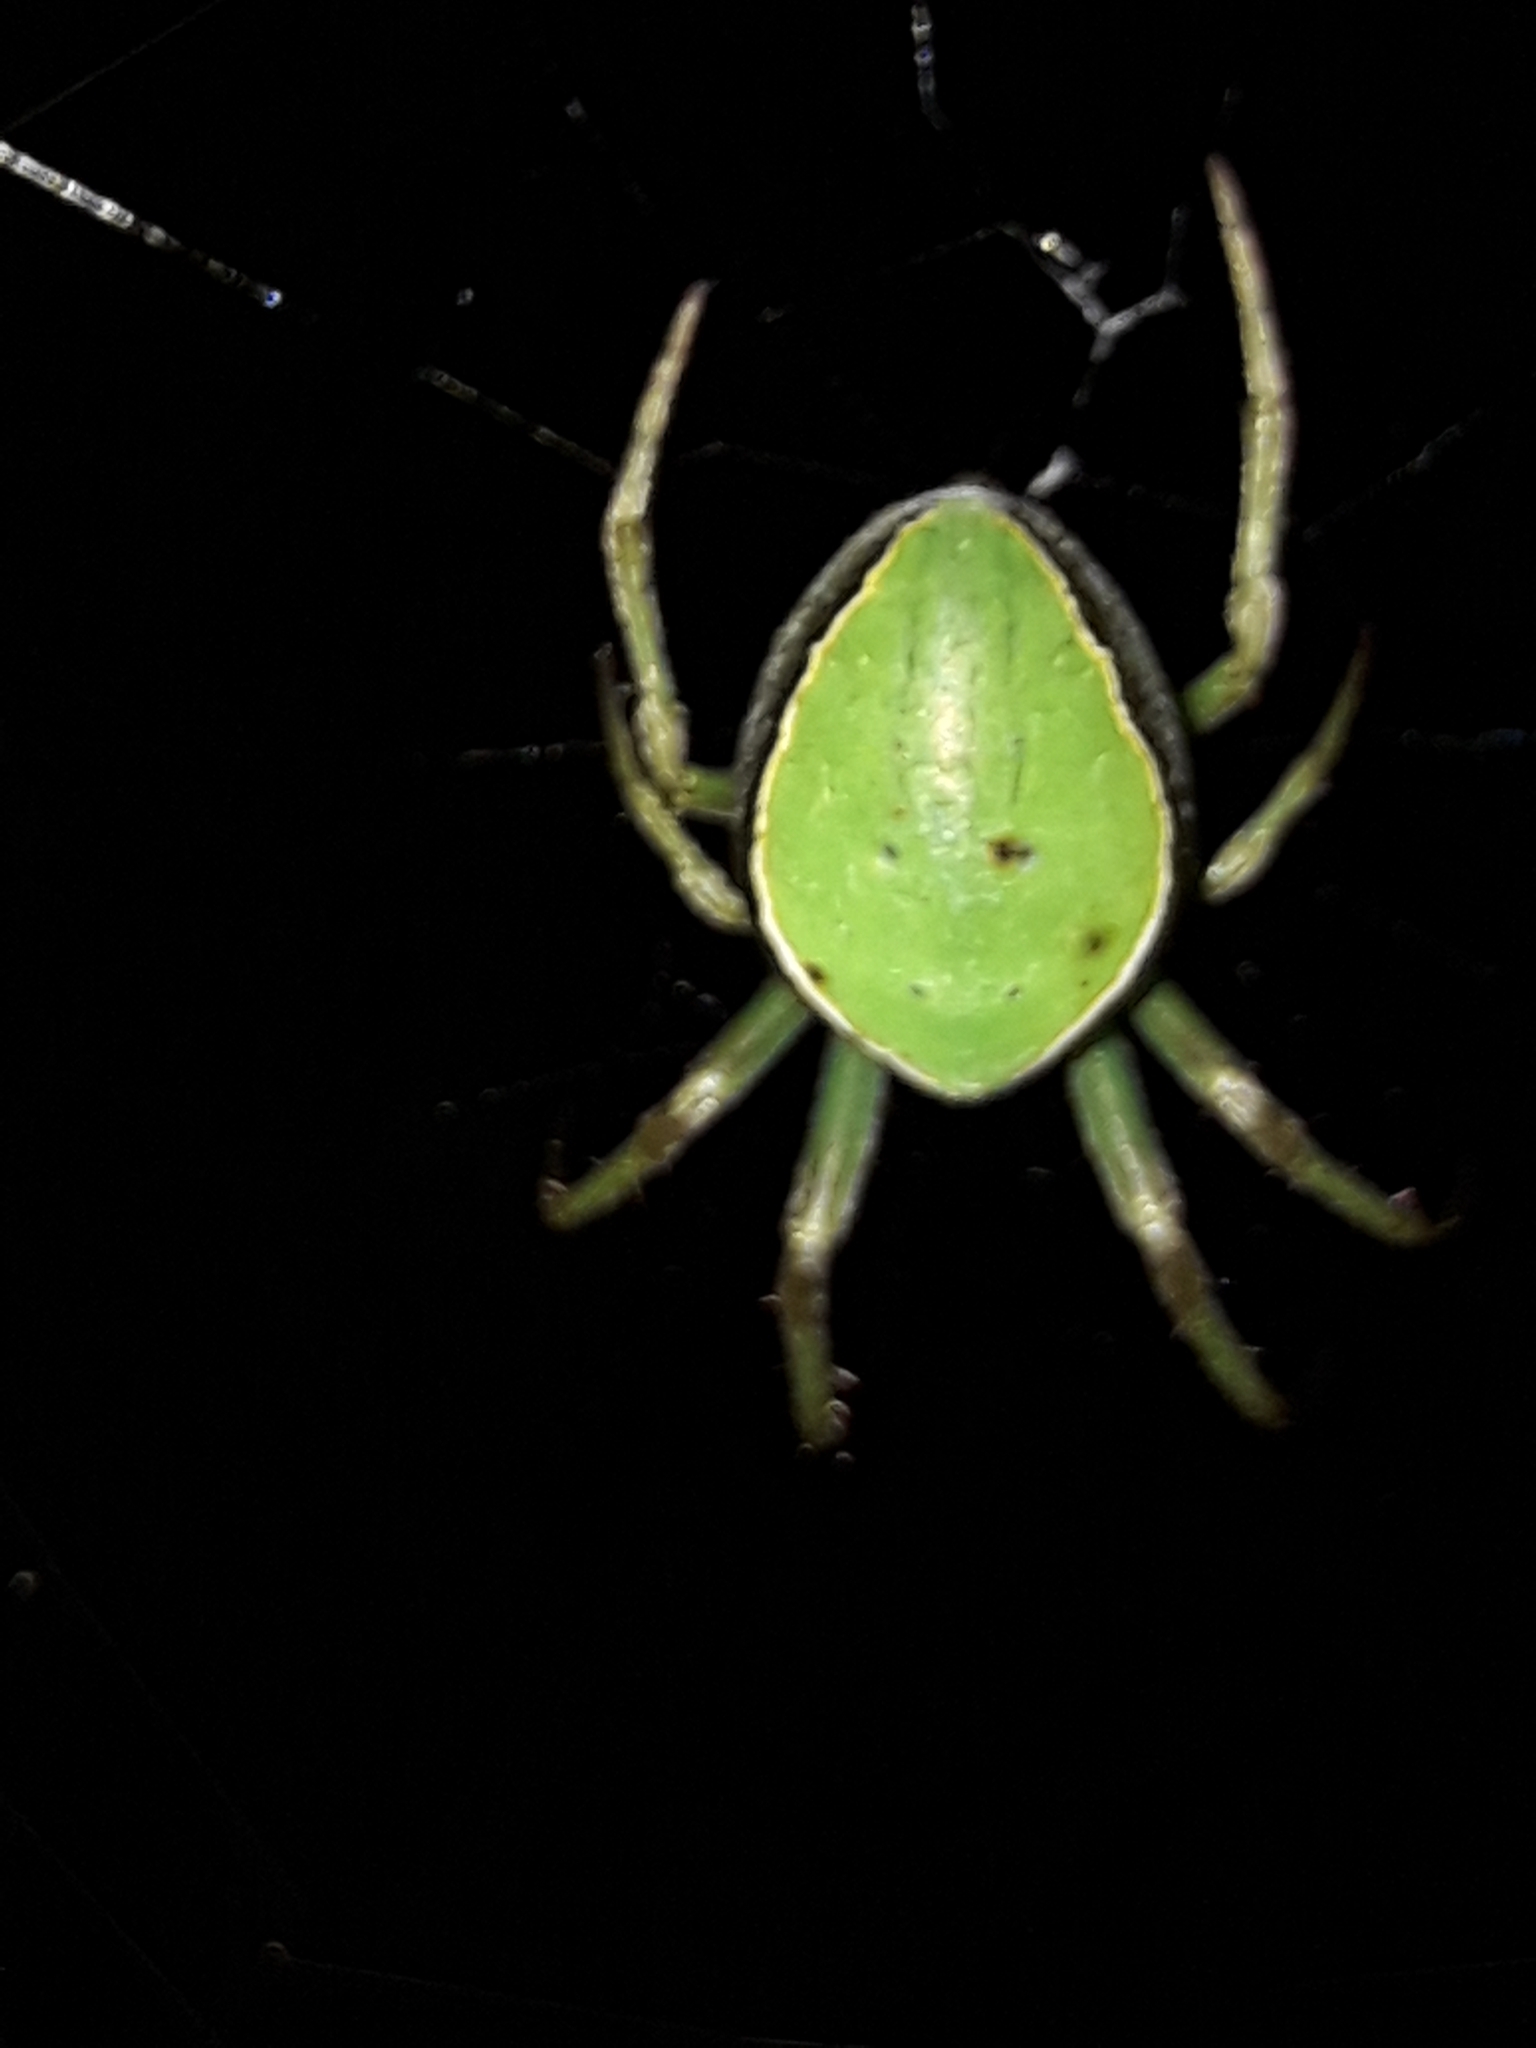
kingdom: Animalia
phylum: Arthropoda
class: Arachnida
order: Araneae
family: Araneidae
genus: Colaranea
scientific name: Colaranea viriditas
